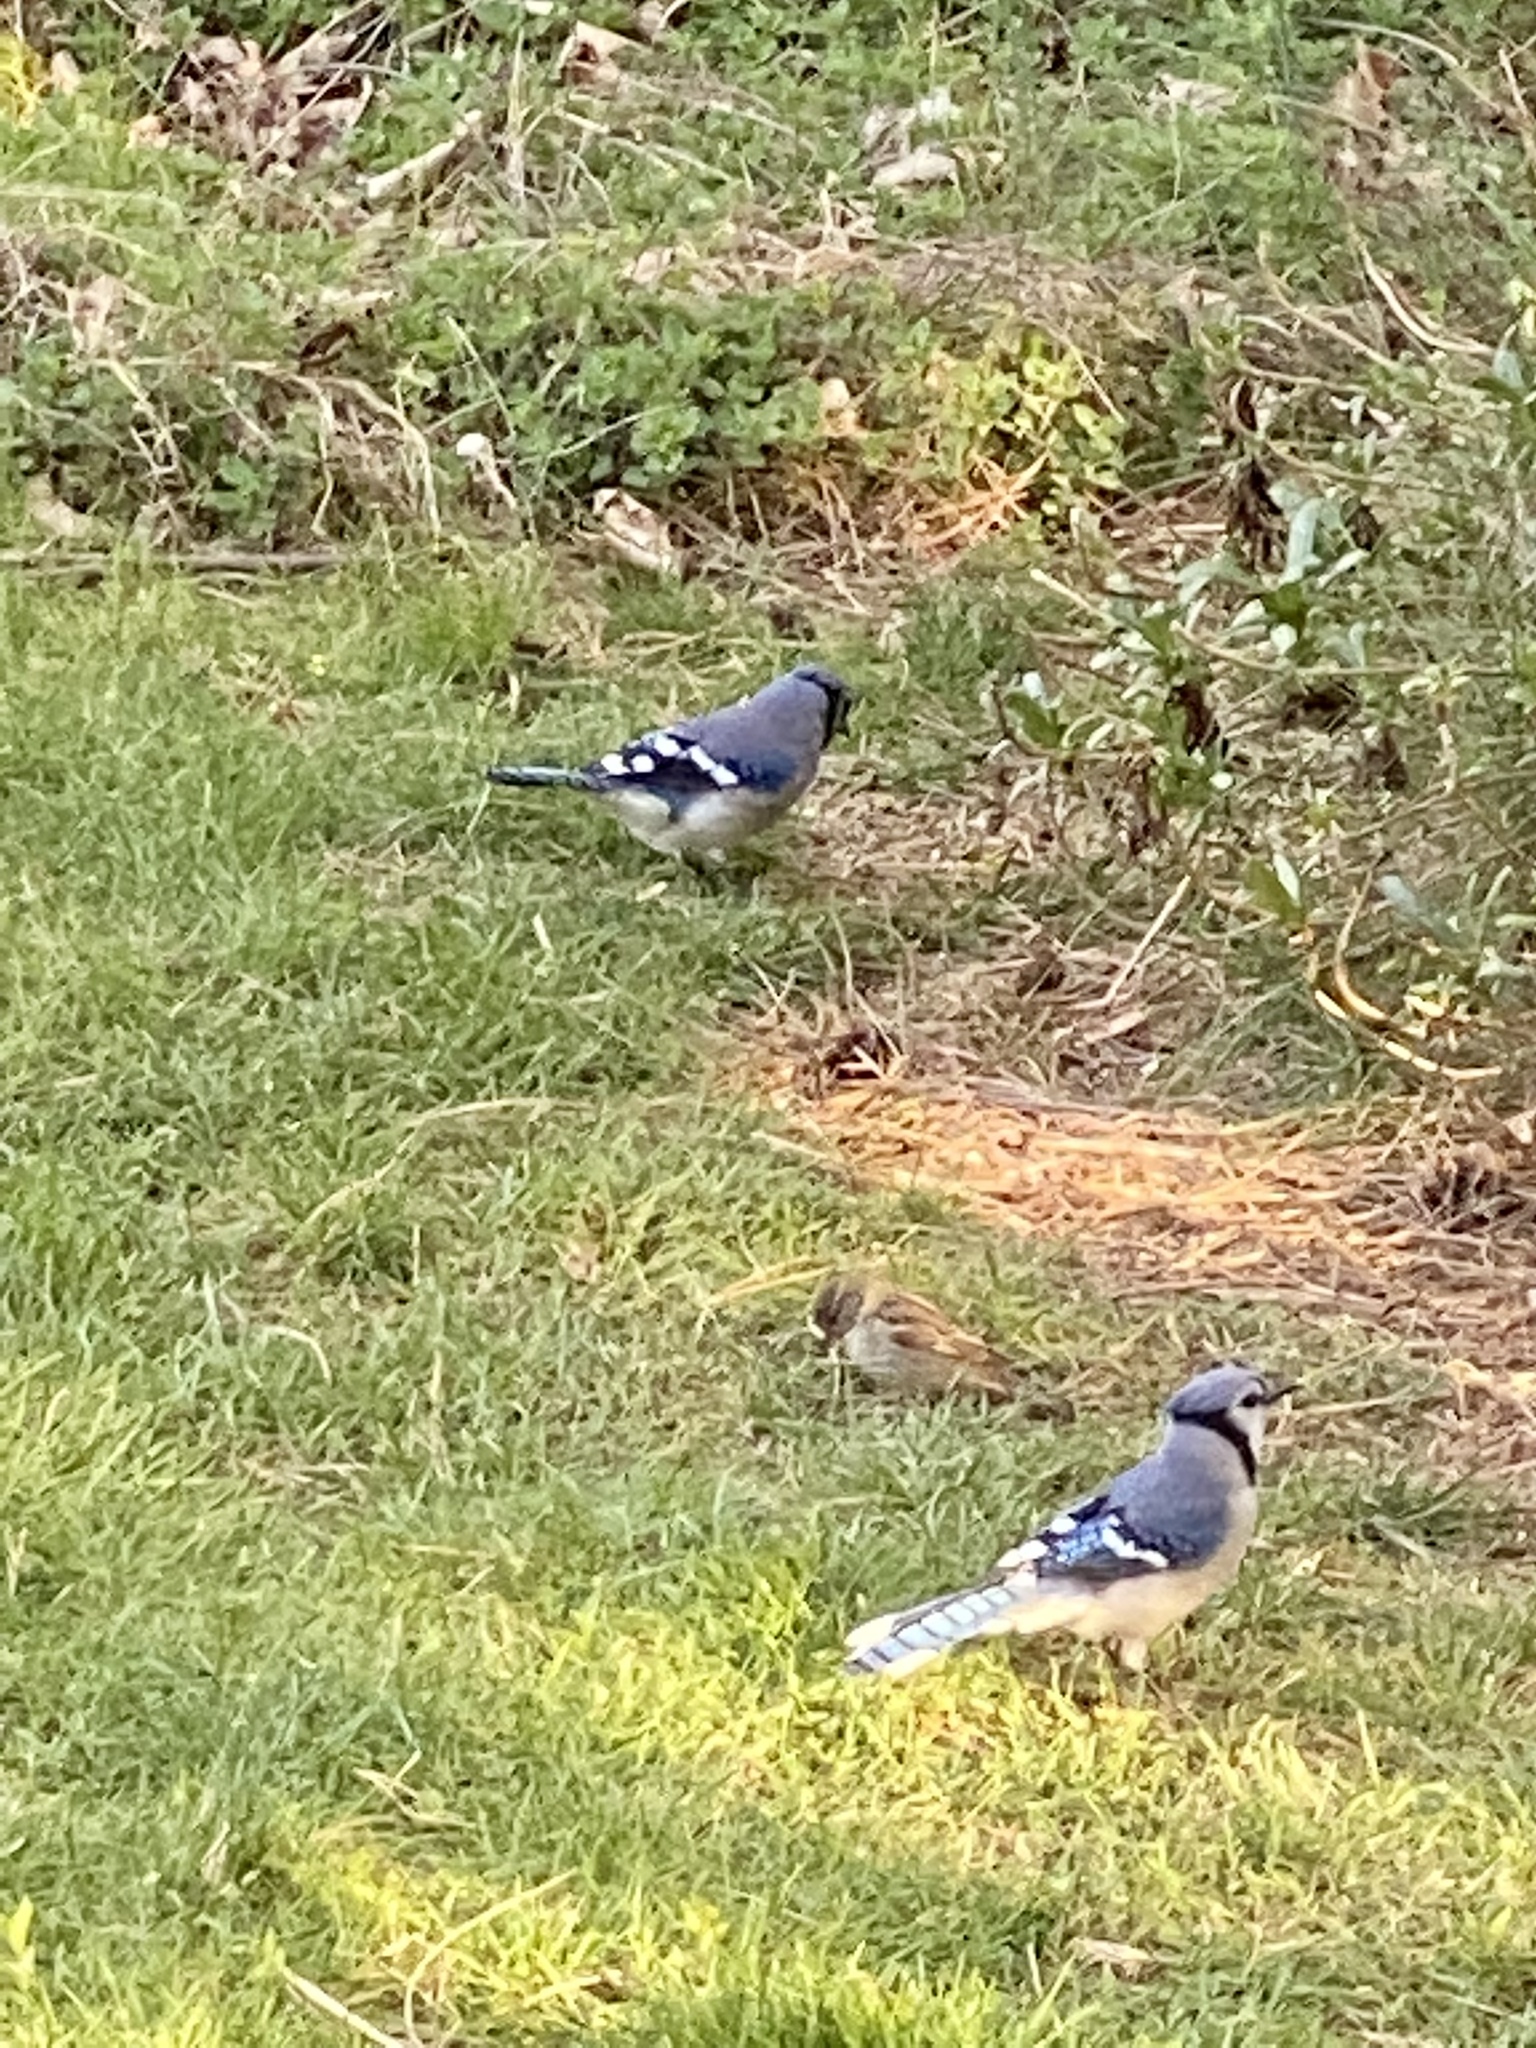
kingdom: Animalia
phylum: Chordata
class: Aves
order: Passeriformes
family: Corvidae
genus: Cyanocitta
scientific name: Cyanocitta cristata
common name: Blue jay
